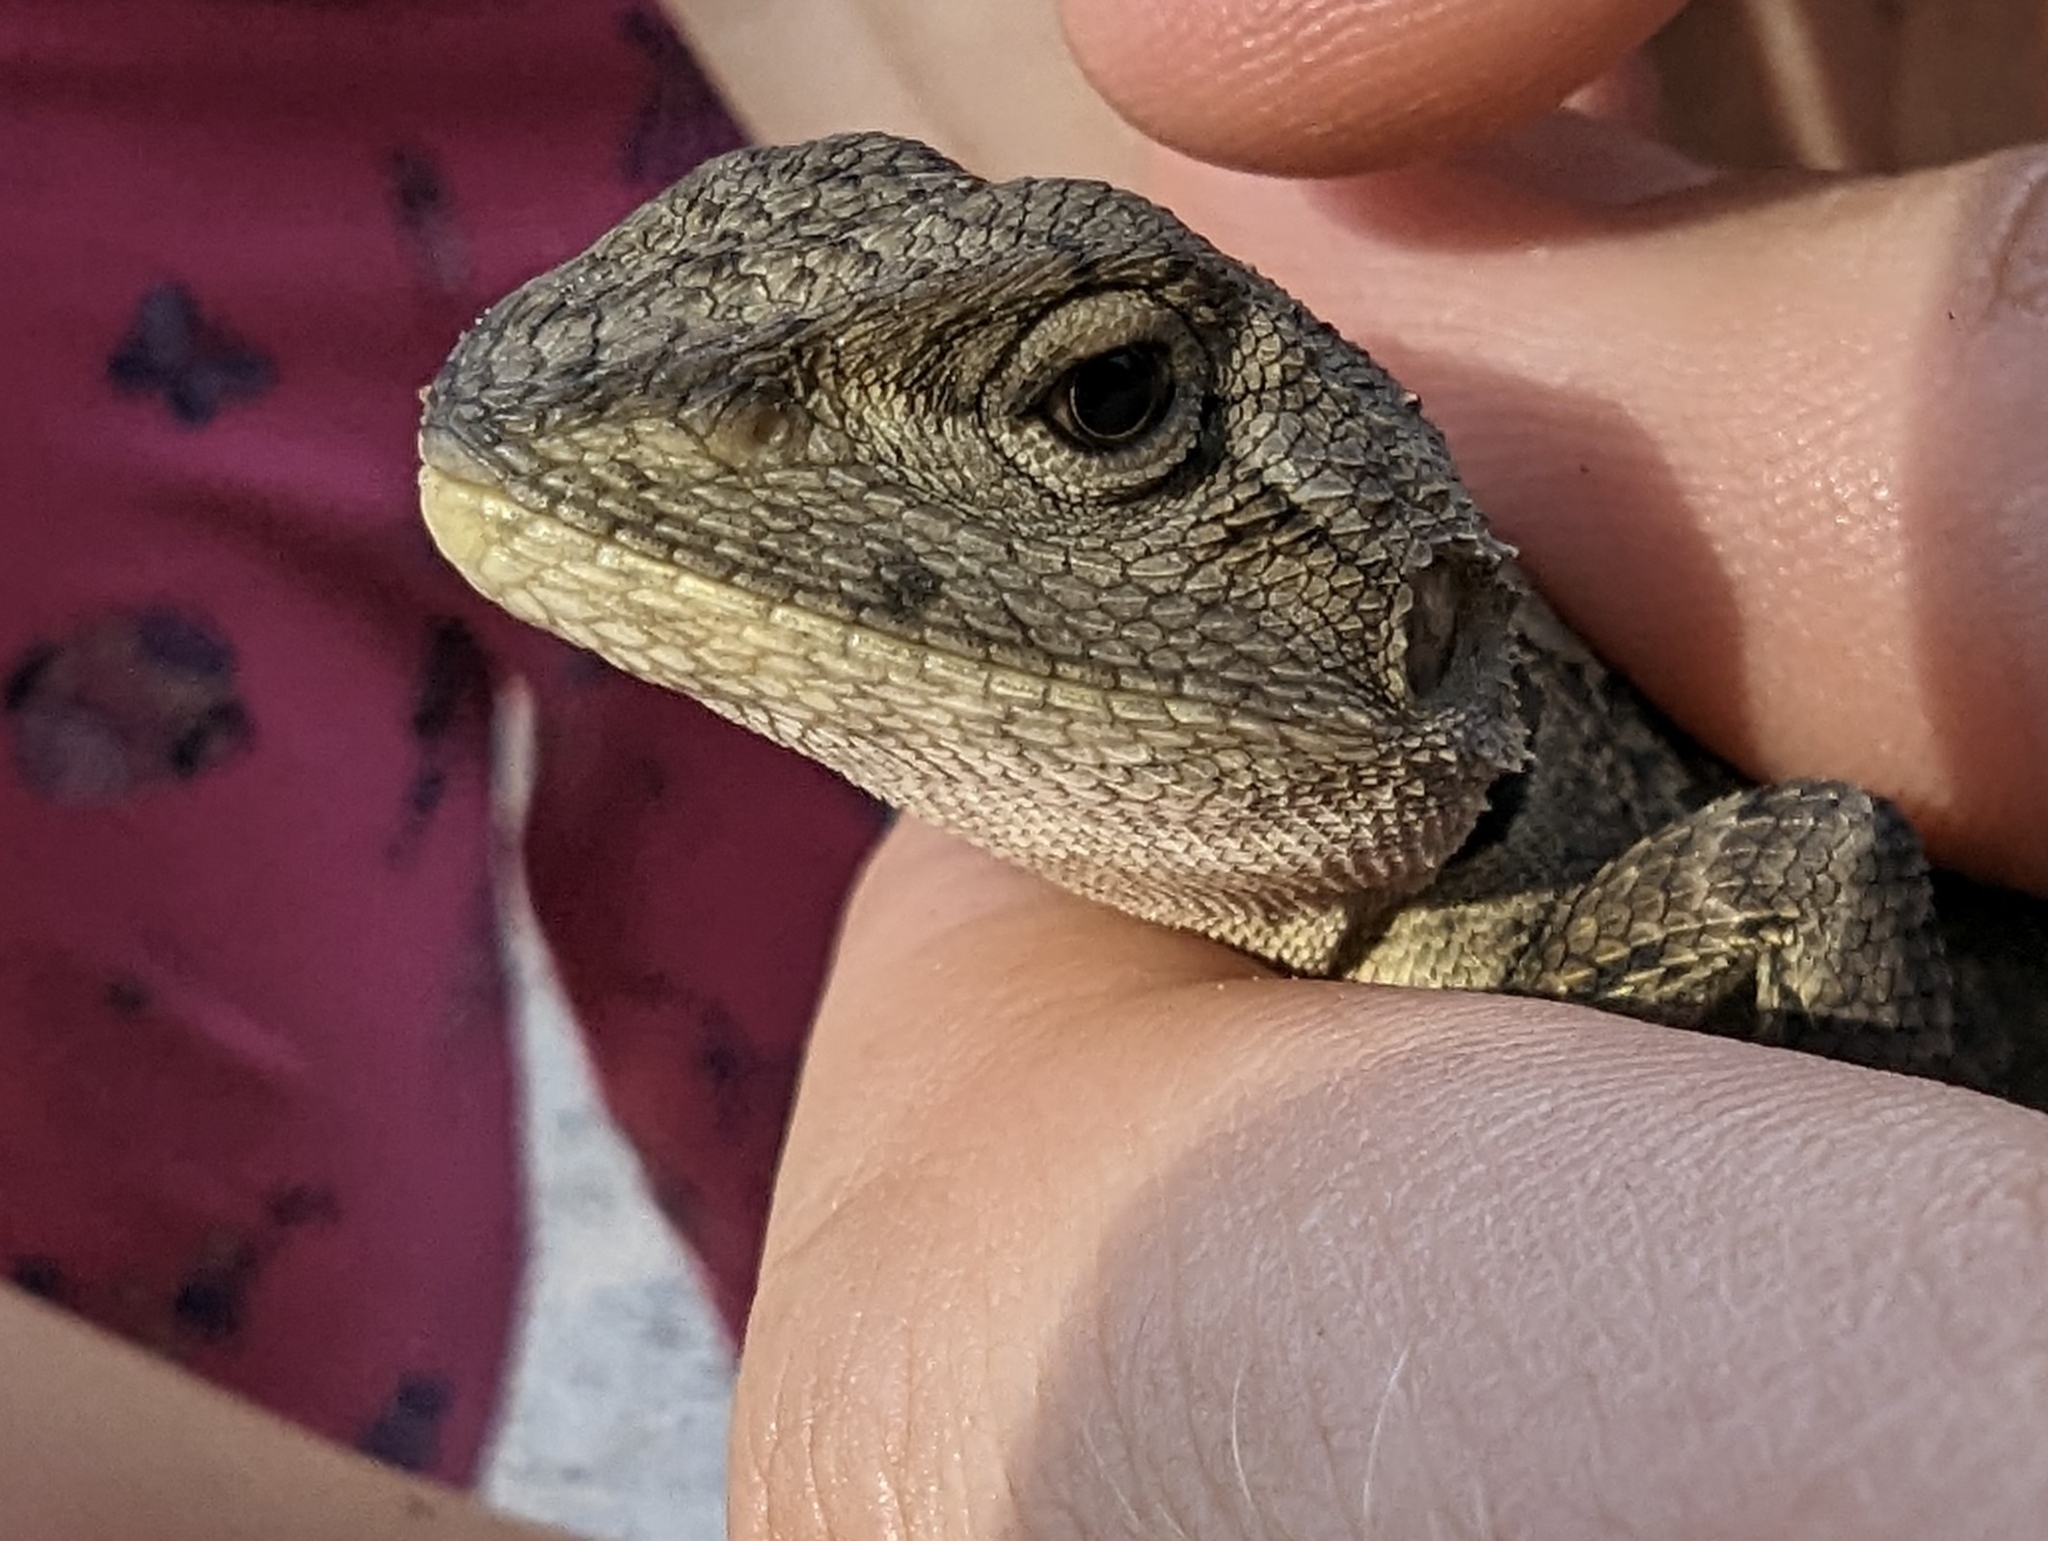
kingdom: Animalia
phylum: Chordata
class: Squamata
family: Agamidae
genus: Amphibolurus
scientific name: Amphibolurus muricatus
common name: Jacky lizard
